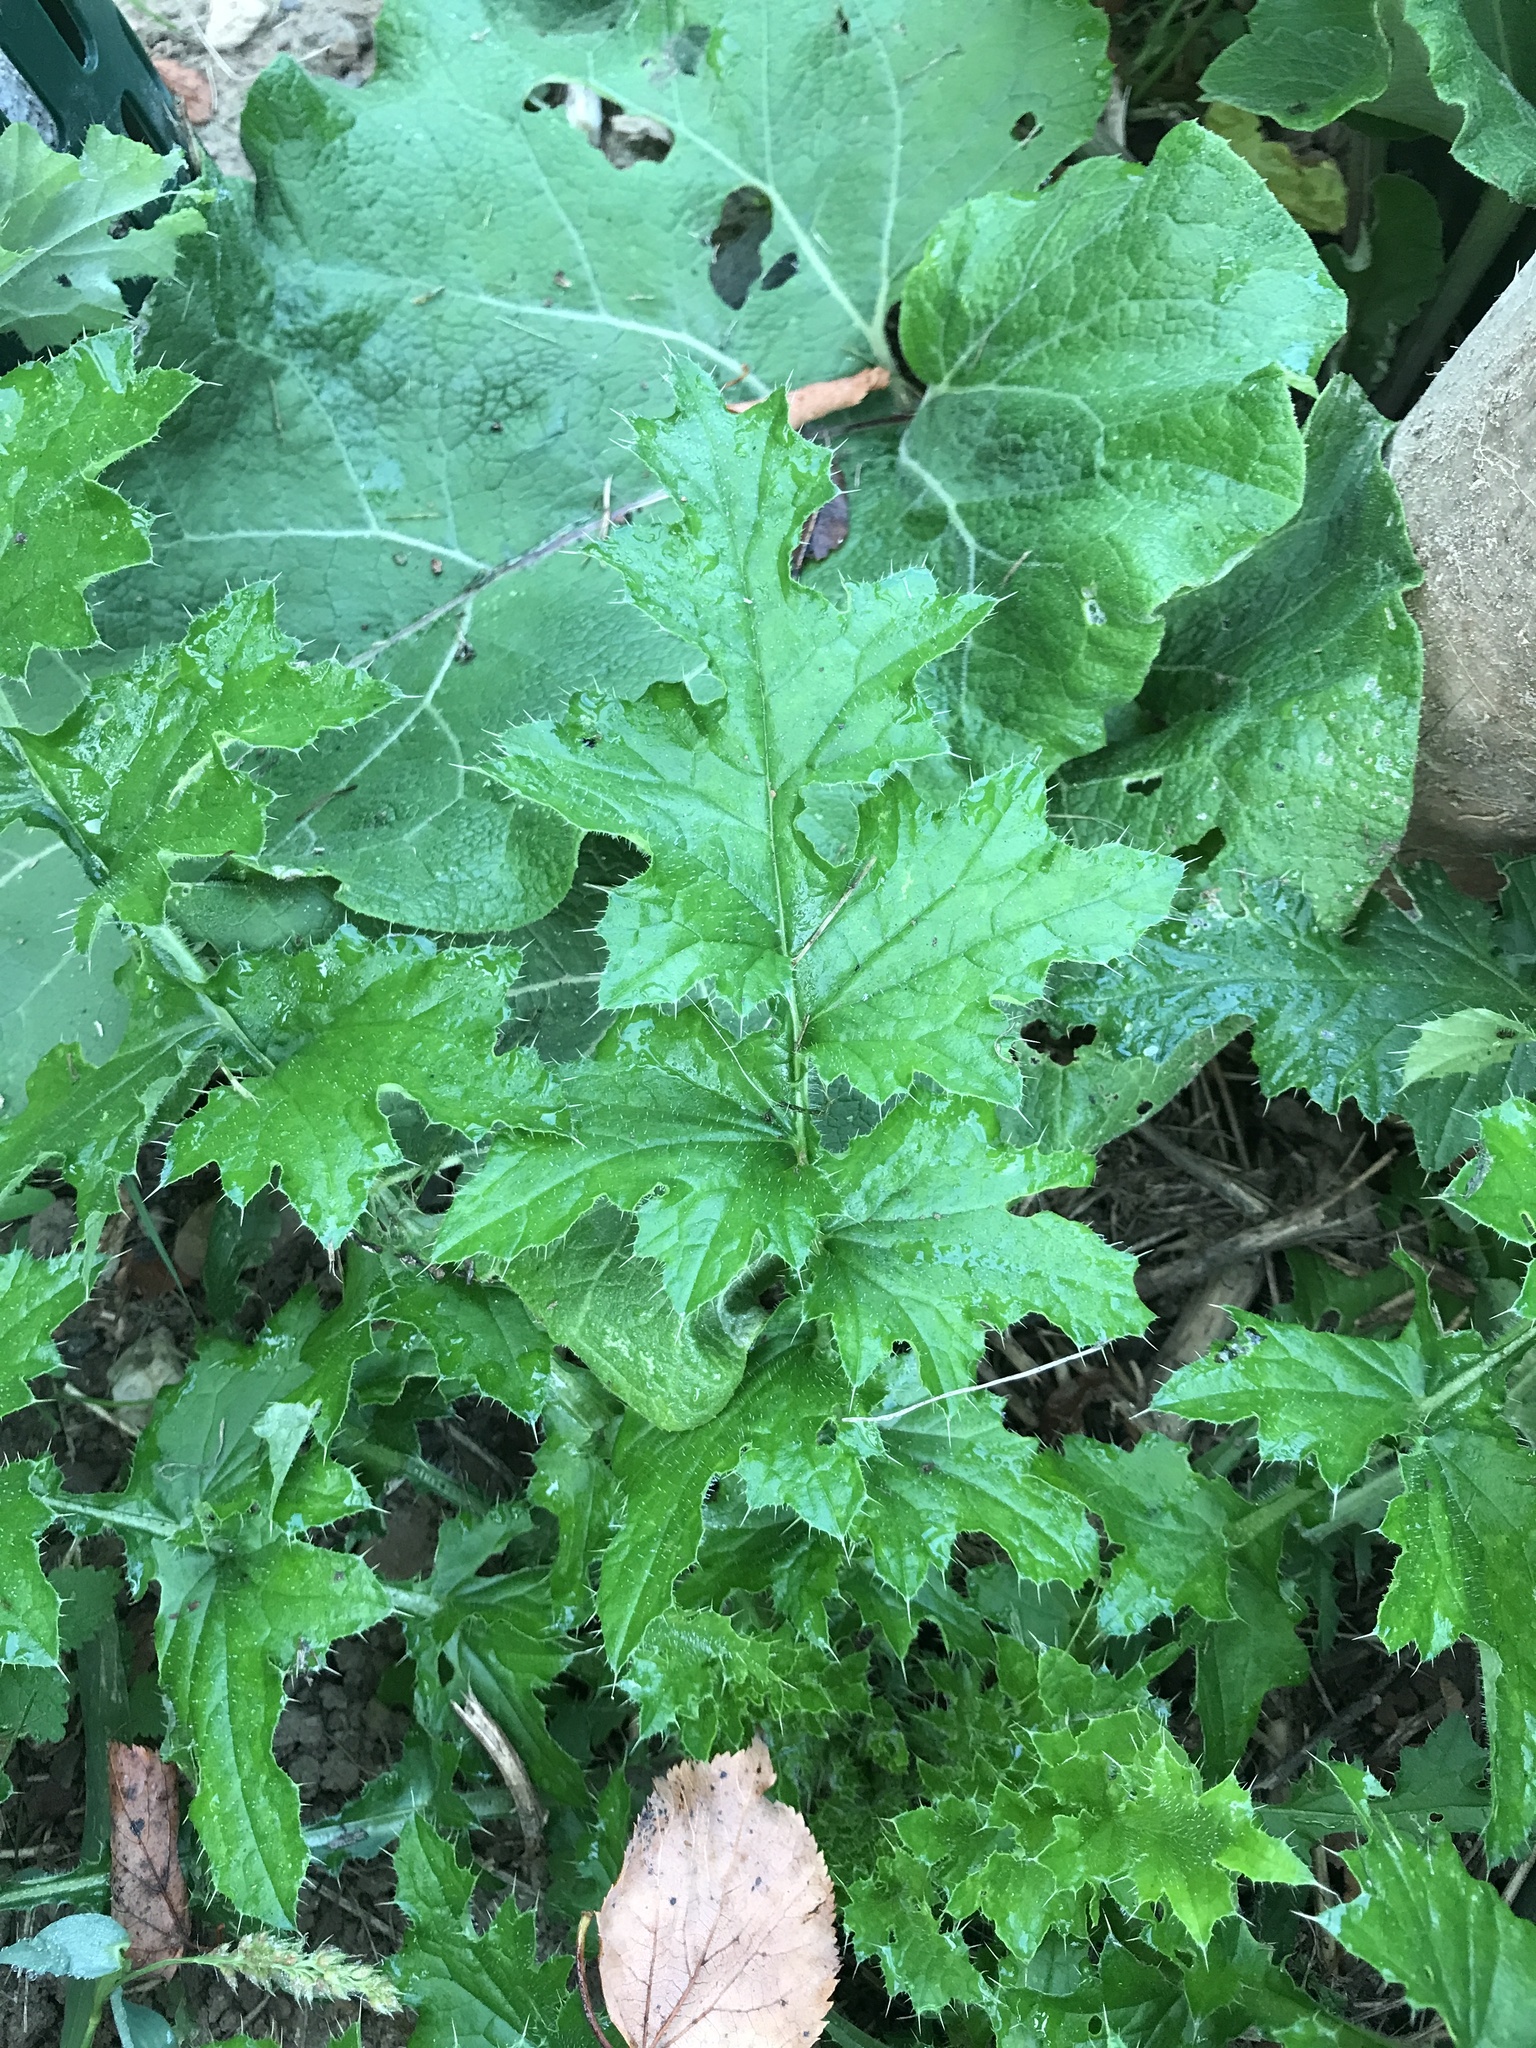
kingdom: Plantae
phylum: Tracheophyta
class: Magnoliopsida
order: Asterales
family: Asteraceae
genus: Carduus
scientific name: Carduus crispus
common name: Welted thistle
